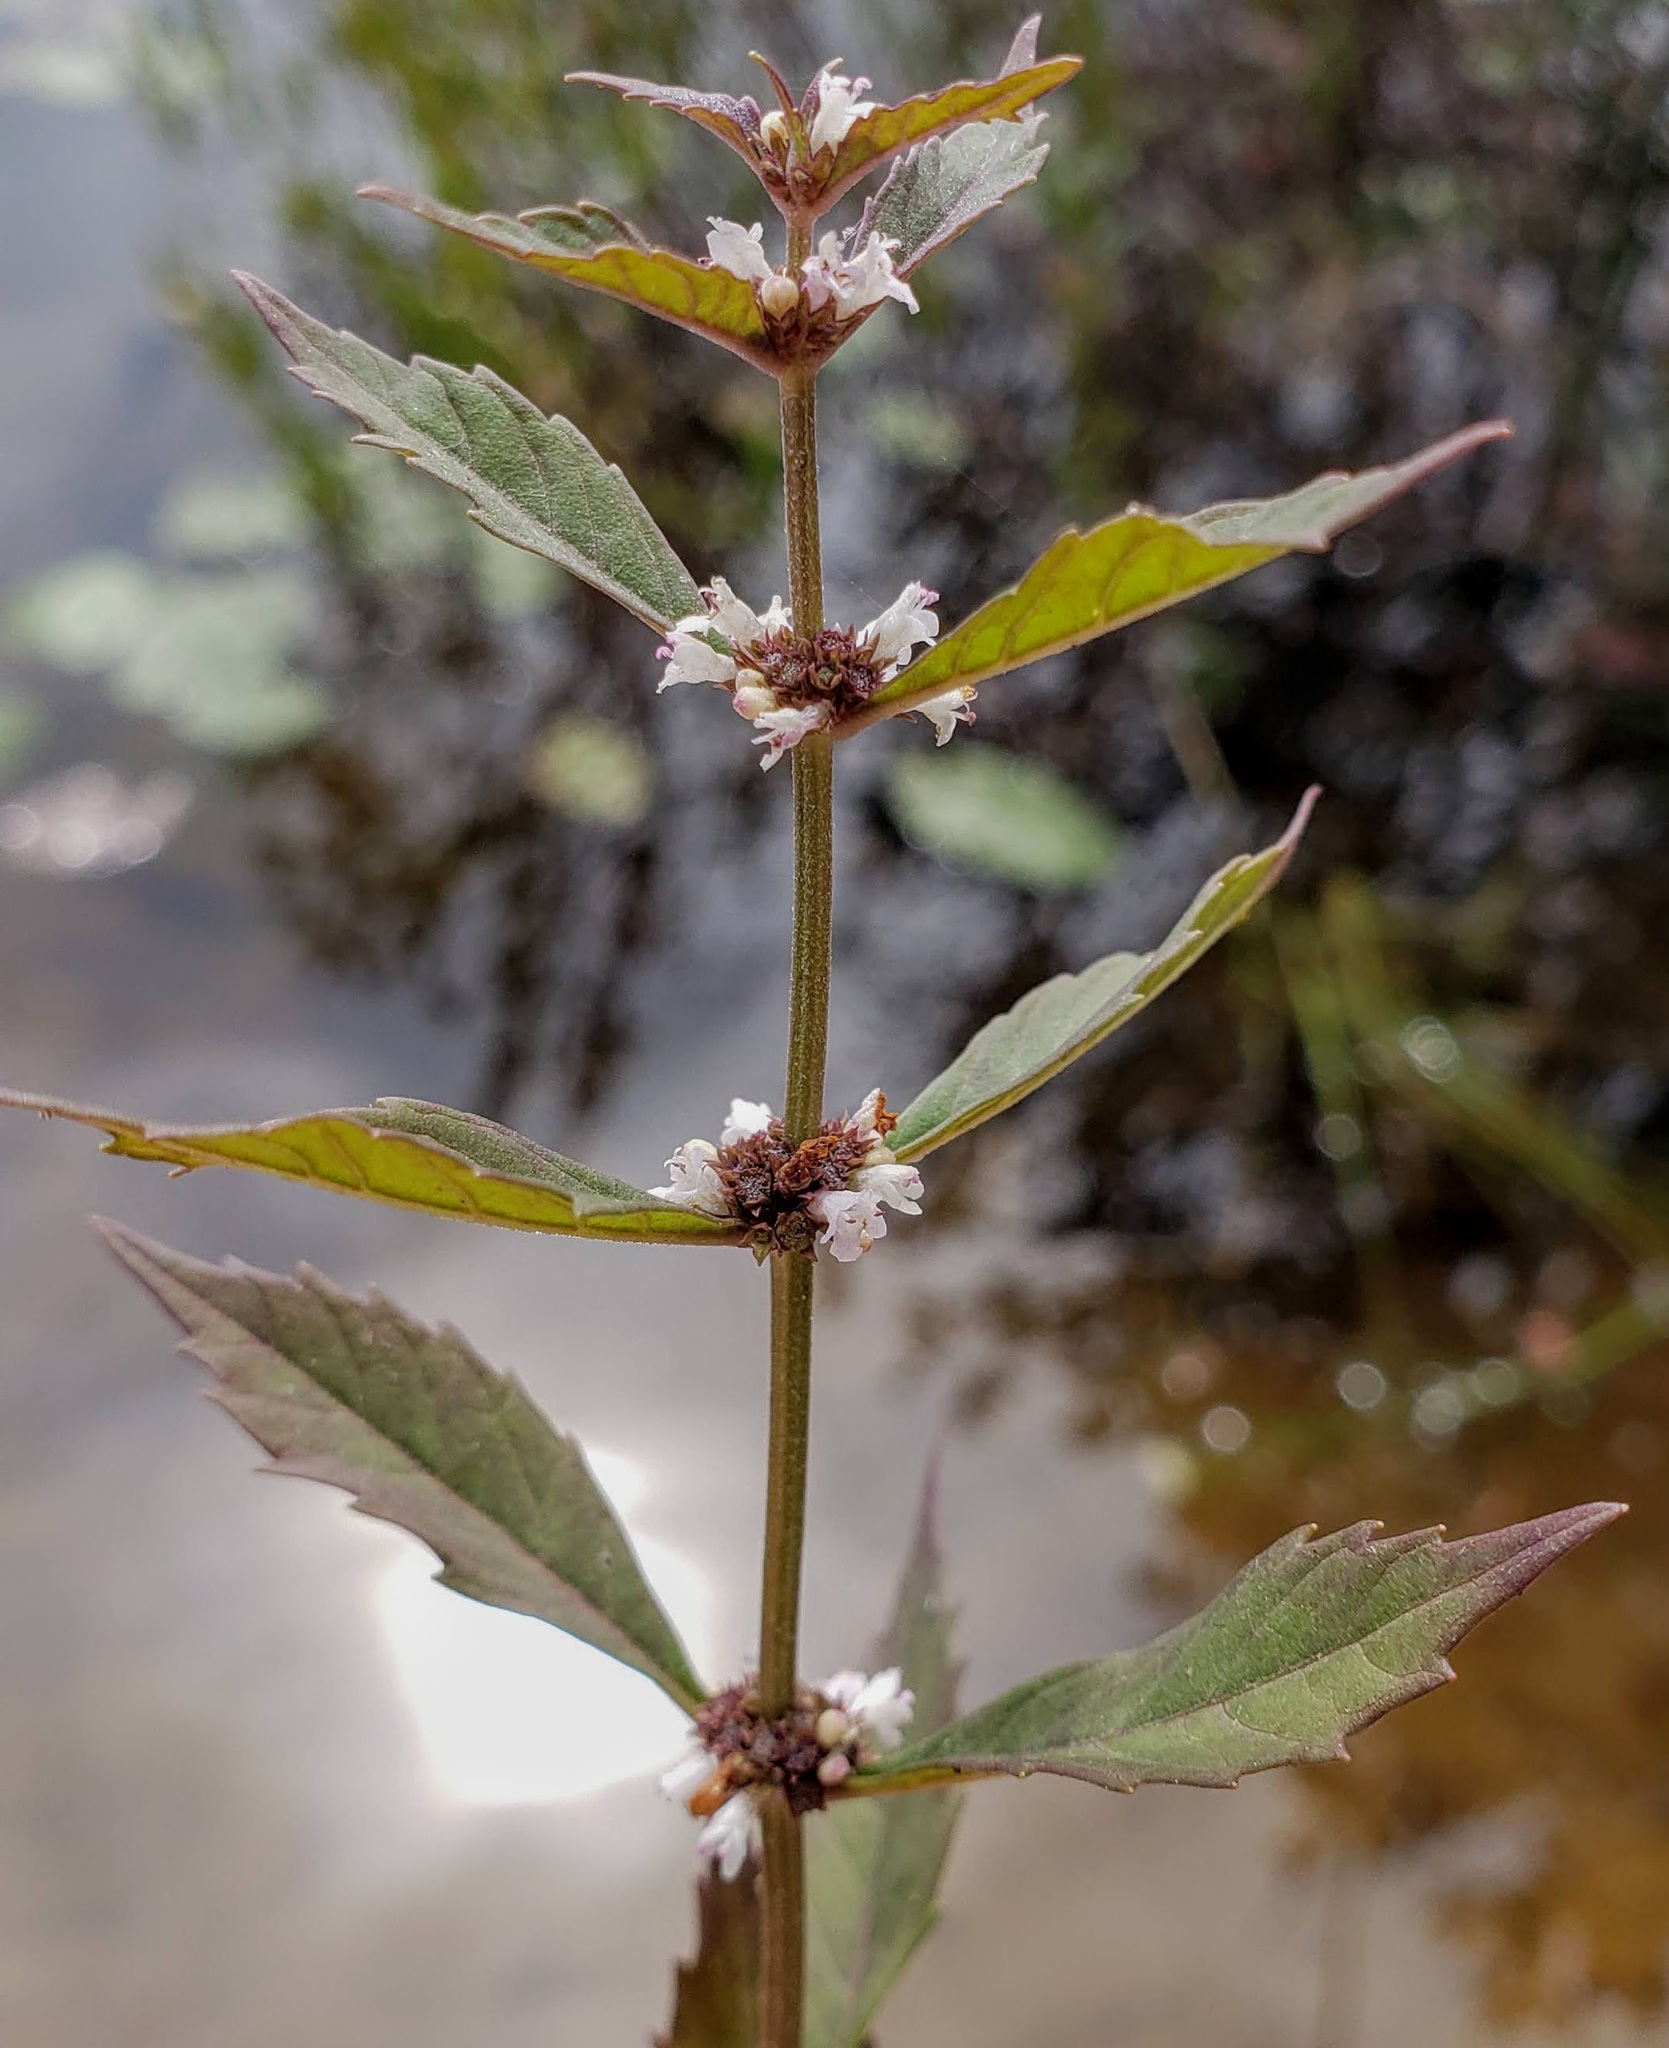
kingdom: Plantae
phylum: Tracheophyta
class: Magnoliopsida
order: Lamiales
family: Lamiaceae
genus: Lycopus
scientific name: Lycopus uniflorus
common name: Northern bugleweed
